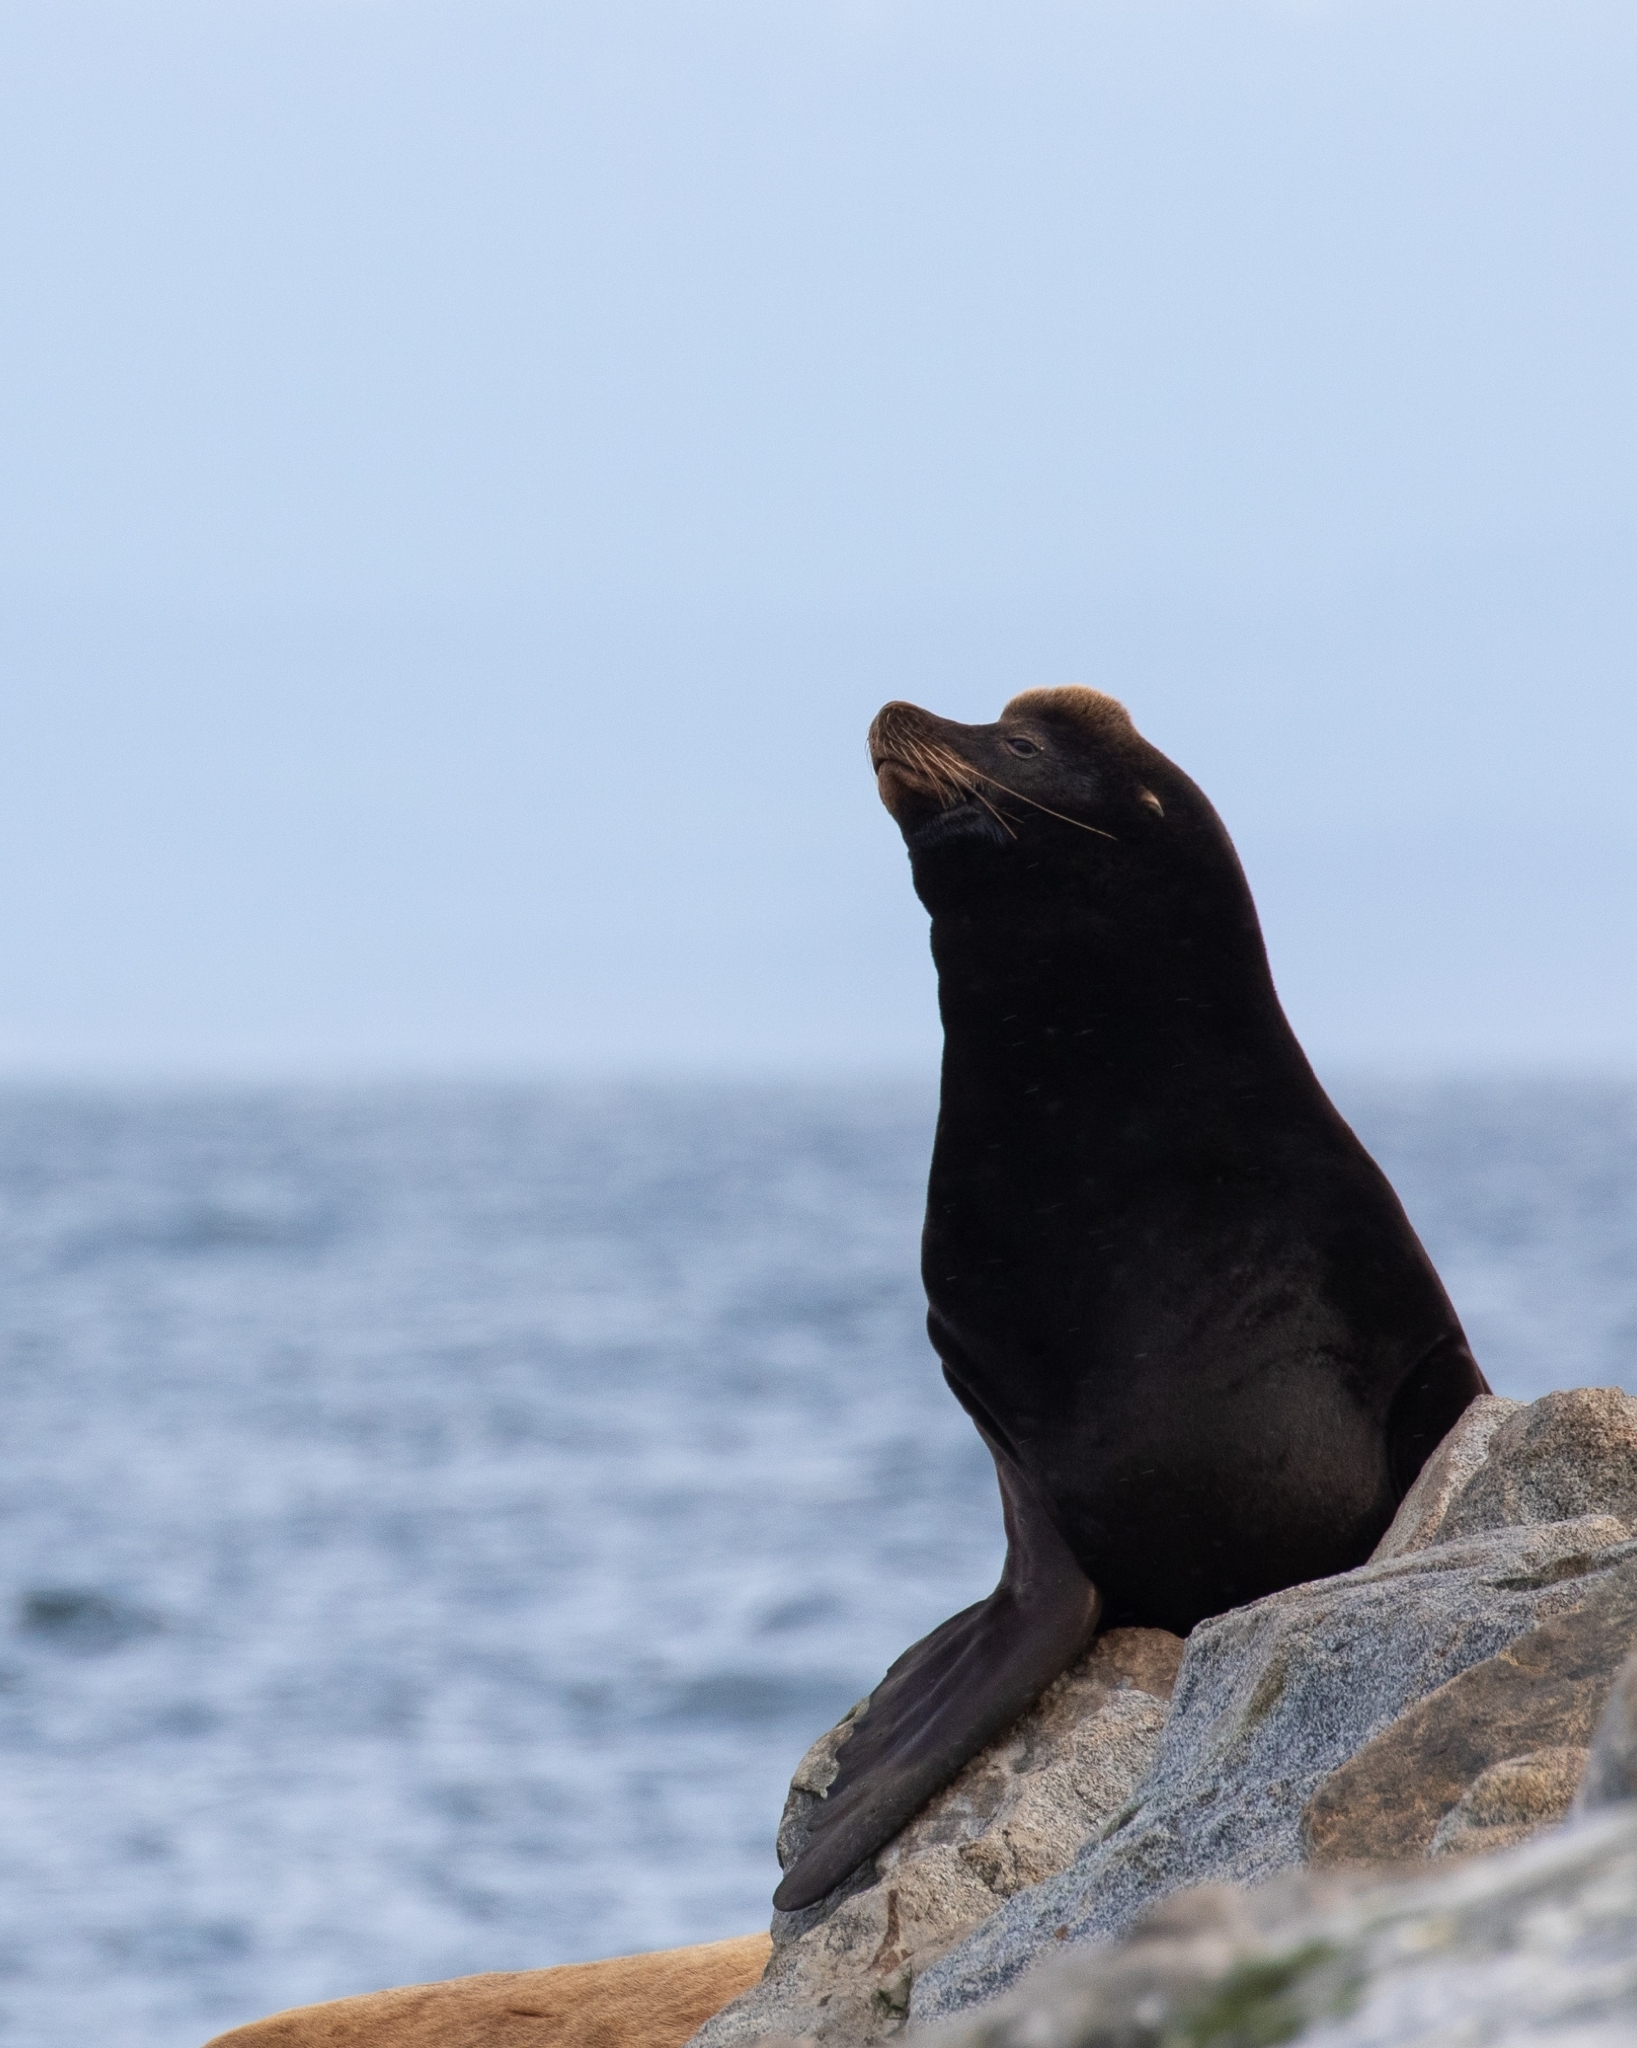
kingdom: Animalia
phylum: Chordata
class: Mammalia
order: Carnivora
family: Otariidae
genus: Zalophus
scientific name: Zalophus californianus
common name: California sea lion
